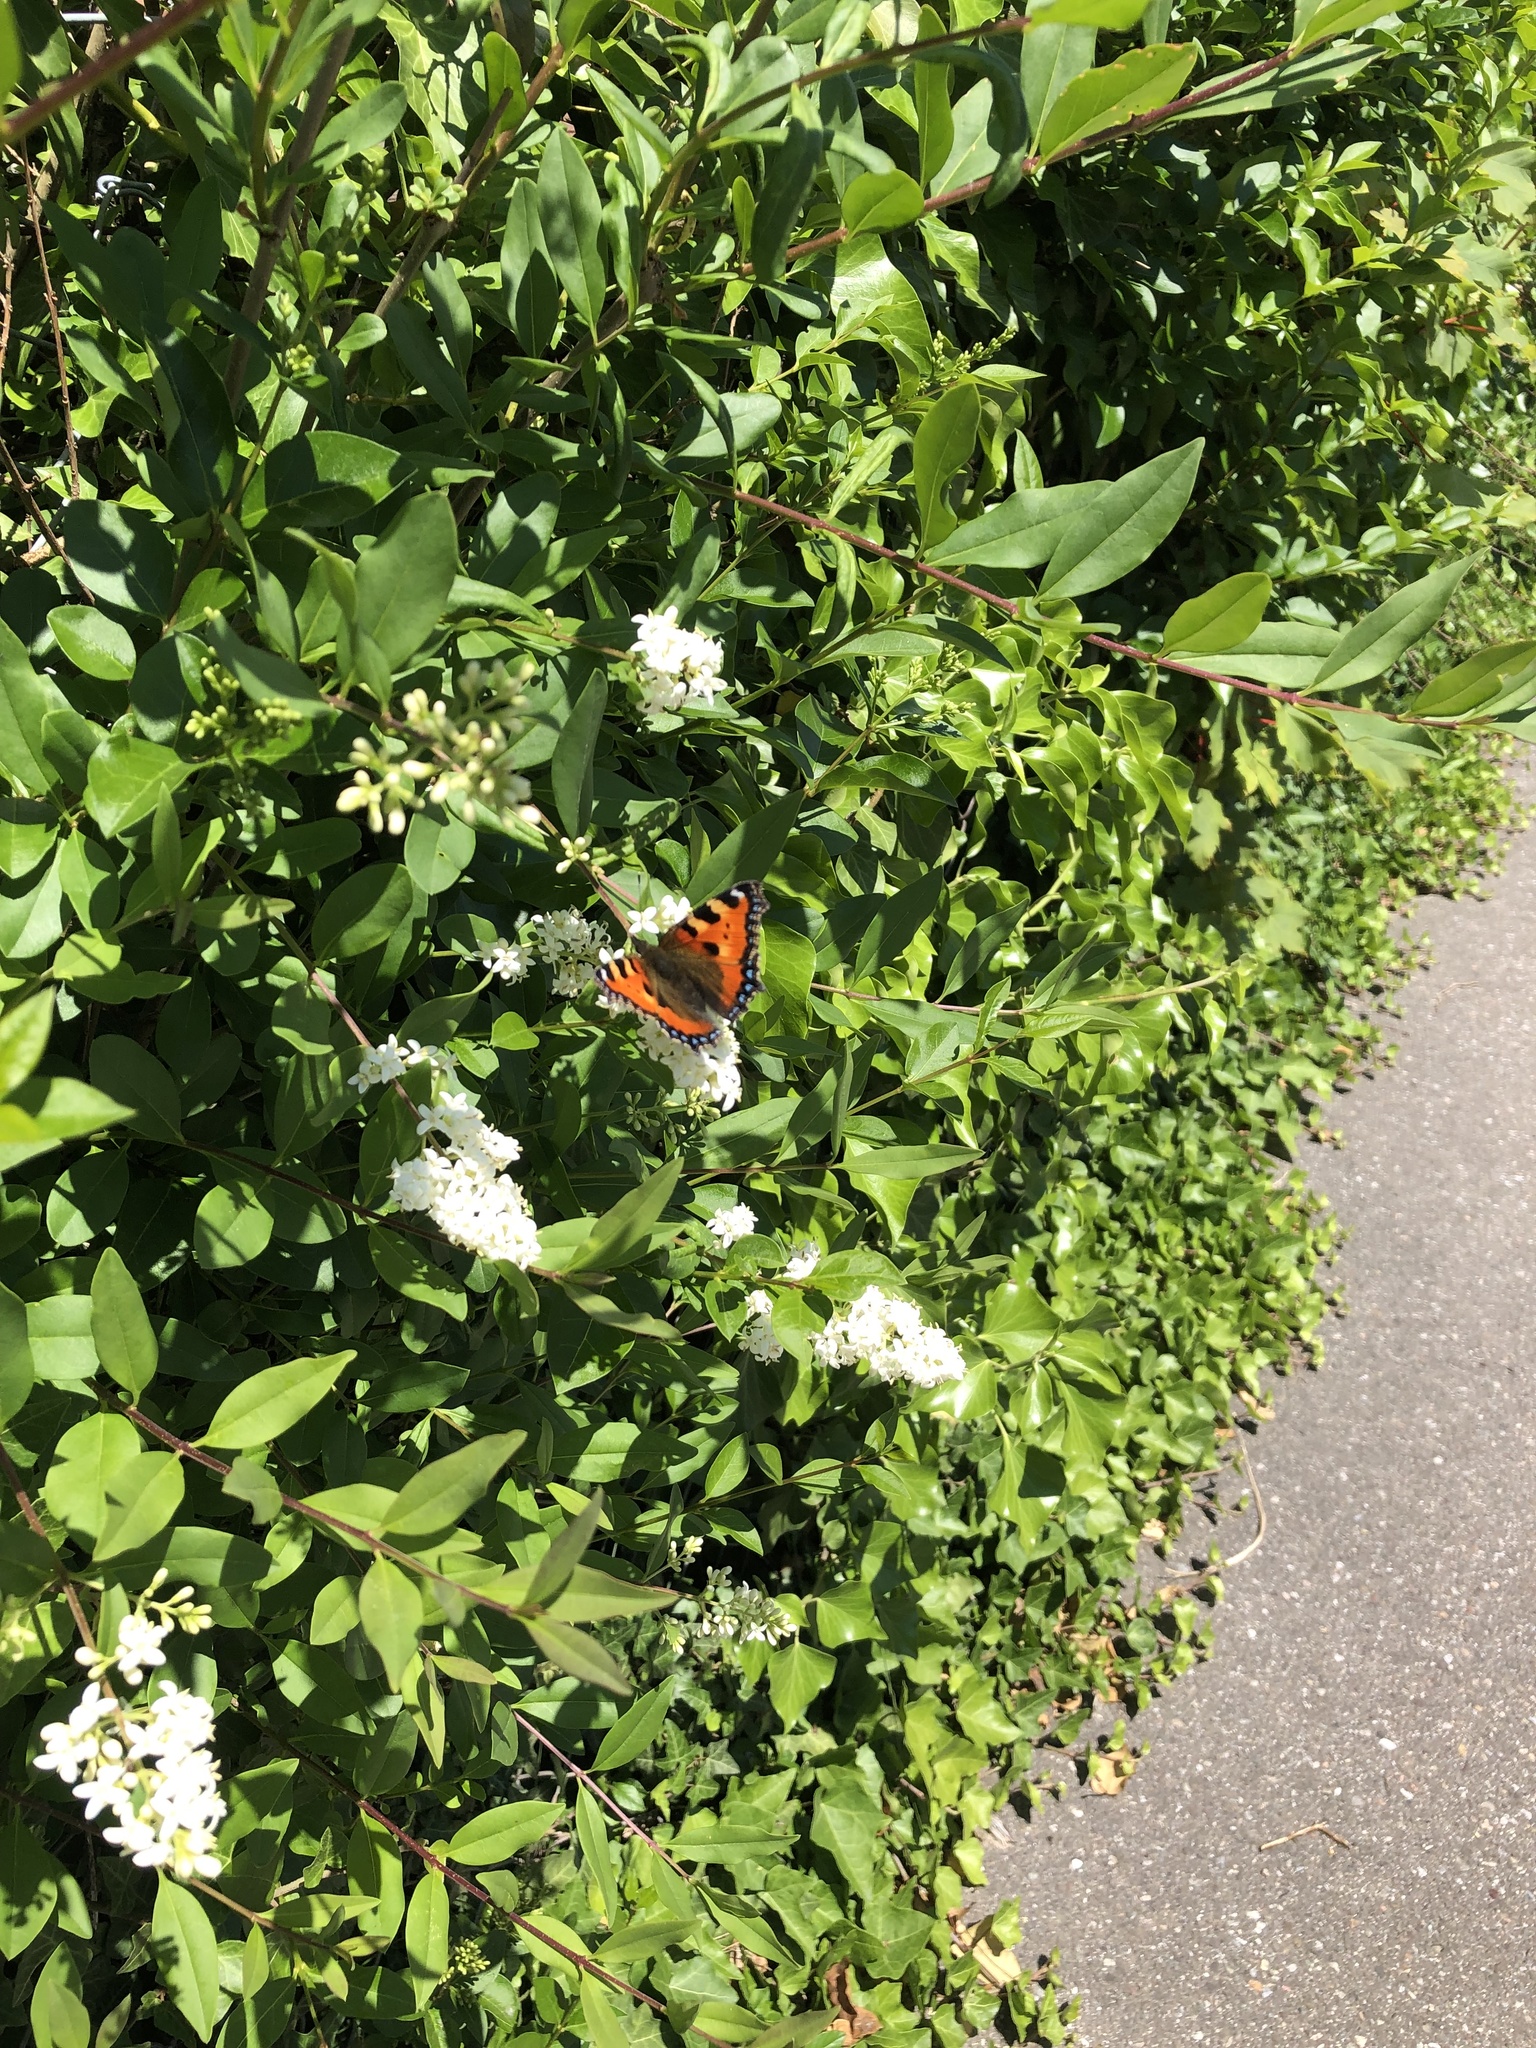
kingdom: Animalia
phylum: Arthropoda
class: Insecta
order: Lepidoptera
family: Nymphalidae
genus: Aglais
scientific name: Aglais urticae
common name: Small tortoiseshell
